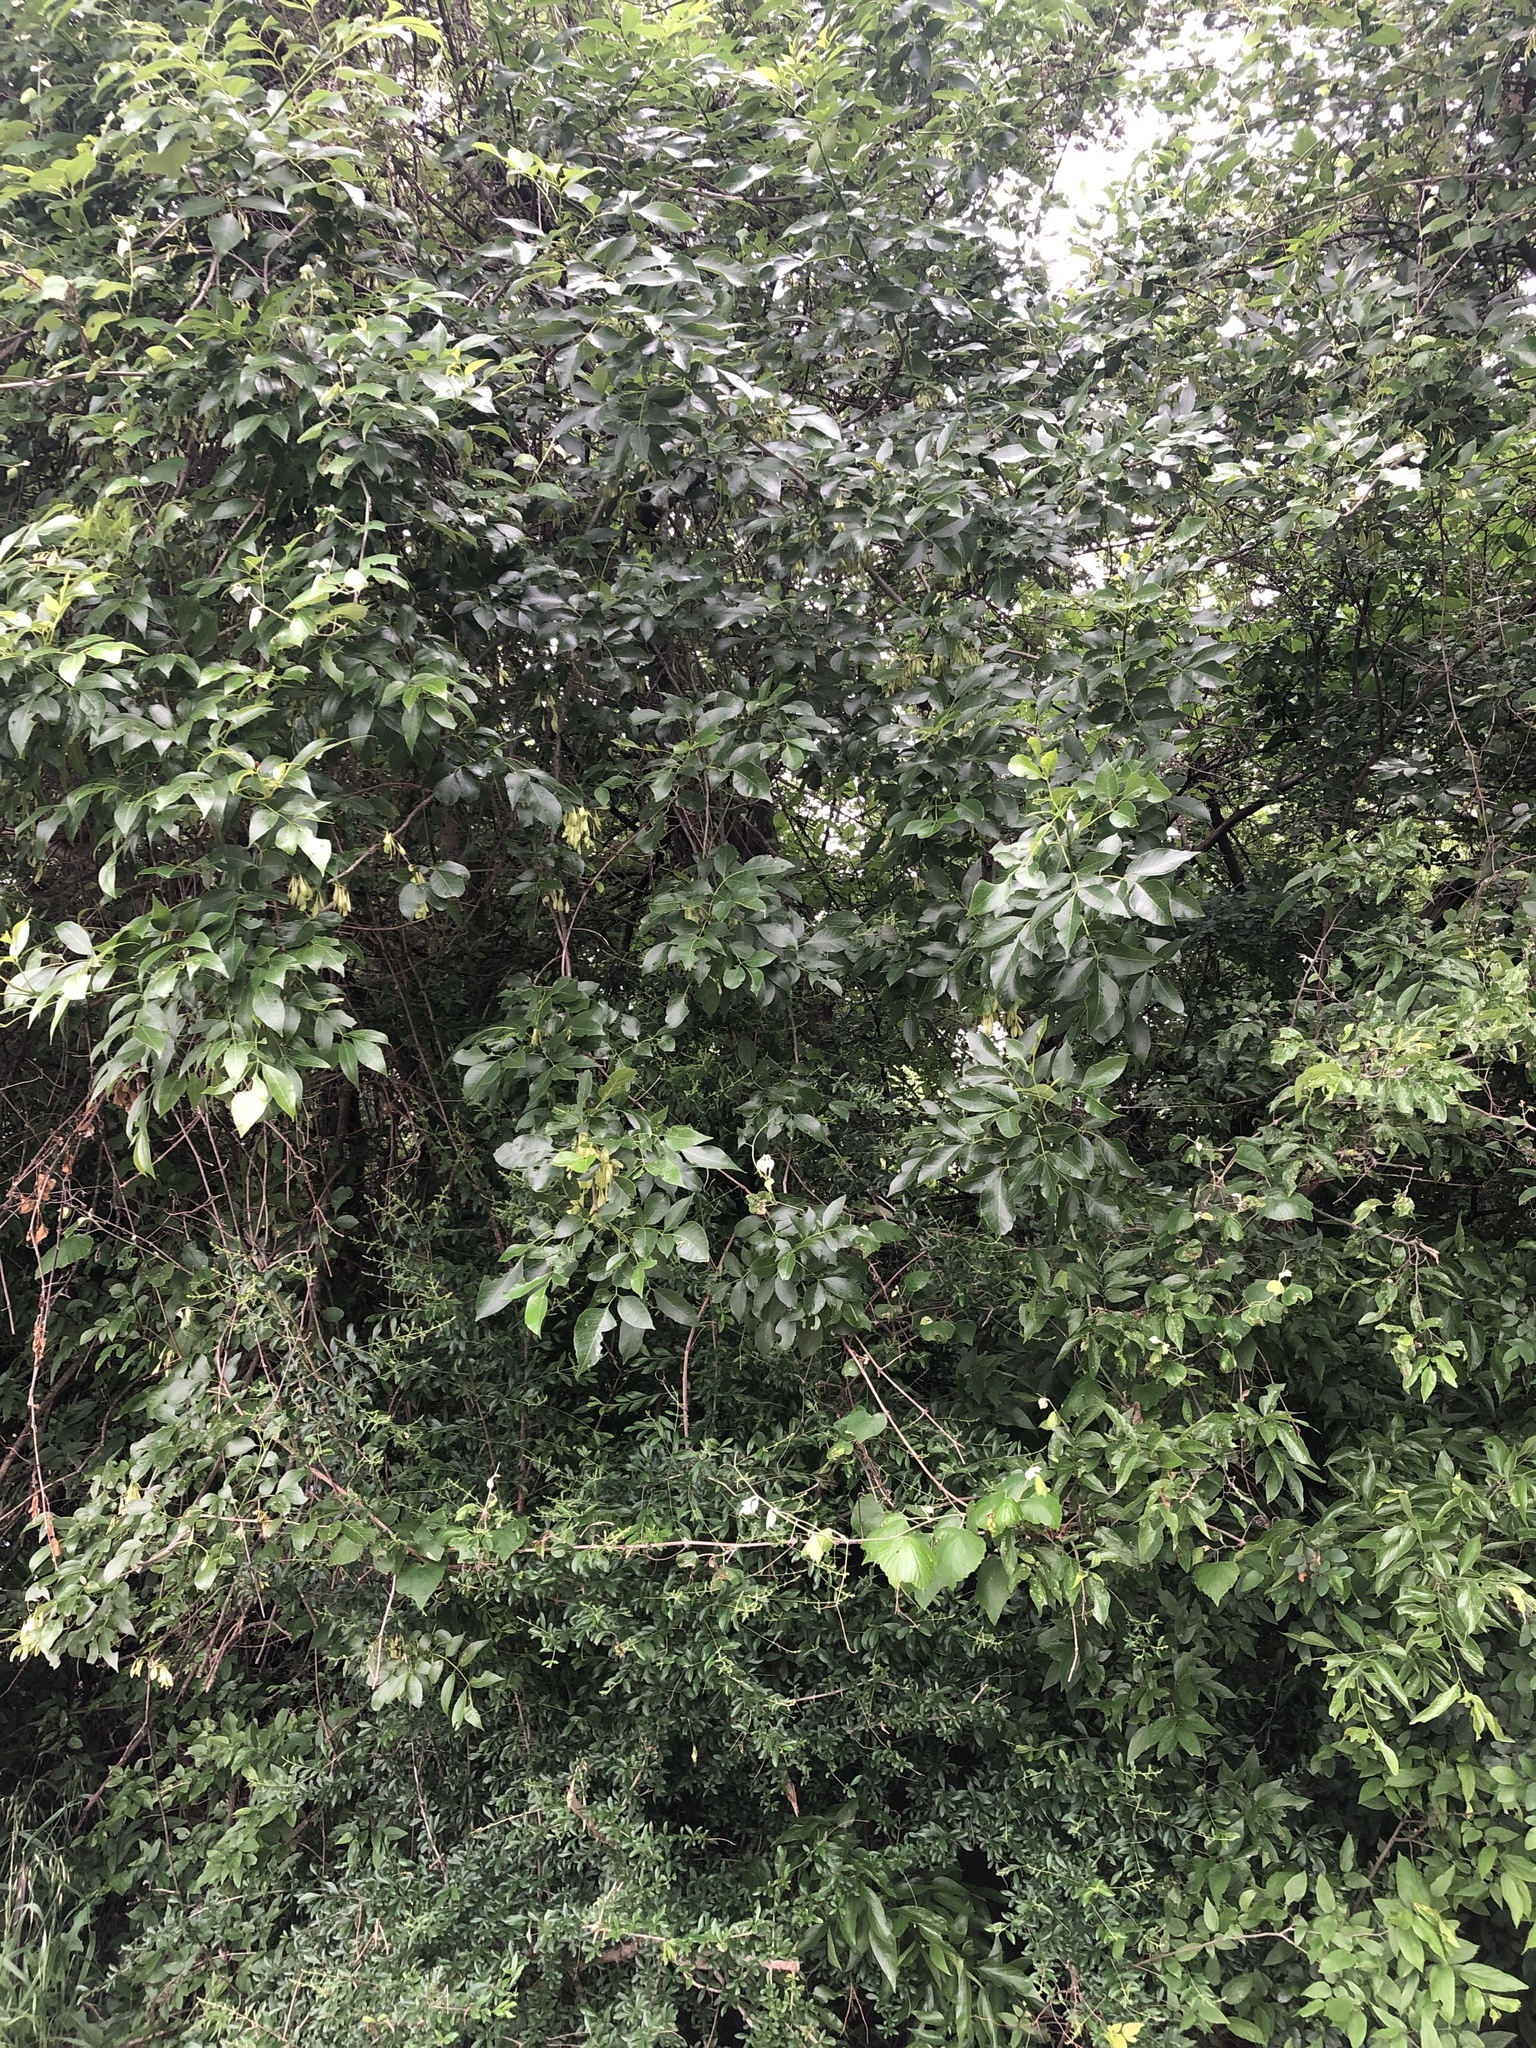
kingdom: Plantae
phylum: Tracheophyta
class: Magnoliopsida
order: Lamiales
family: Oleaceae
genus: Fraxinus
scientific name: Fraxinus pennsylvanica
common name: Green ash
